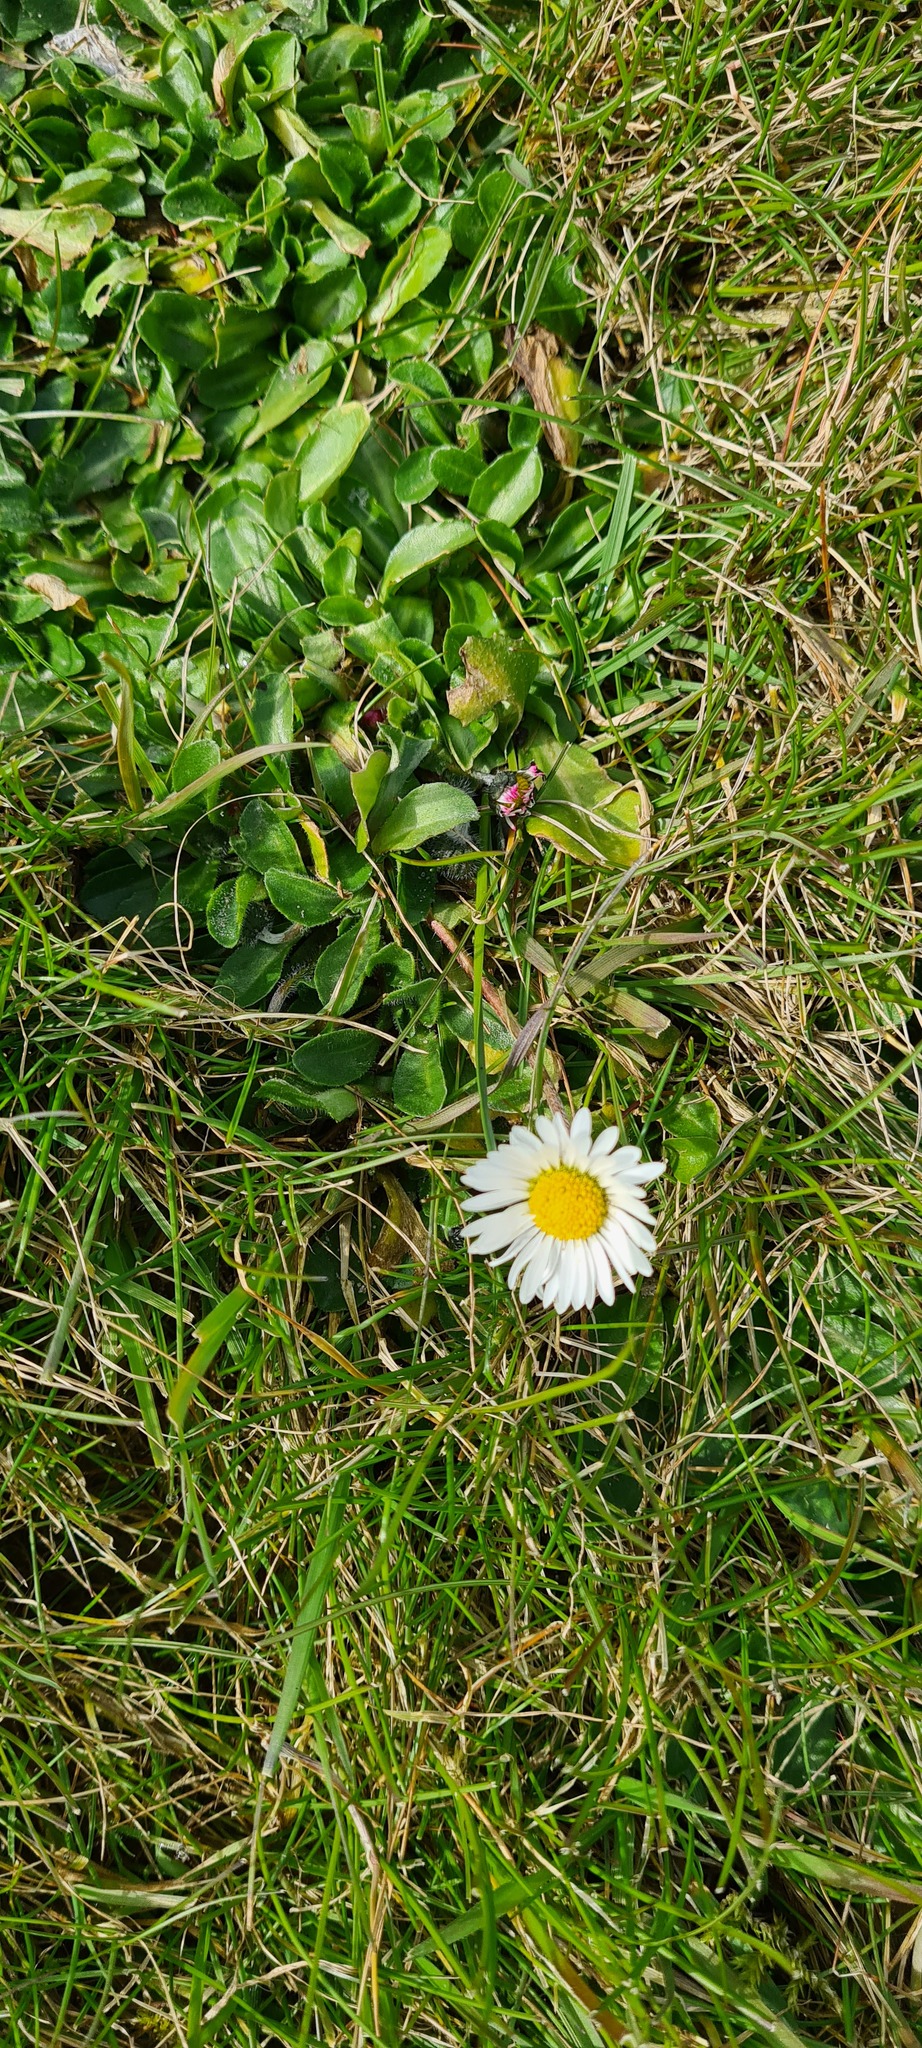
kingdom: Plantae
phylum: Tracheophyta
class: Magnoliopsida
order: Asterales
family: Asteraceae
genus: Bellis
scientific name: Bellis perennis
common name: Lawndaisy
